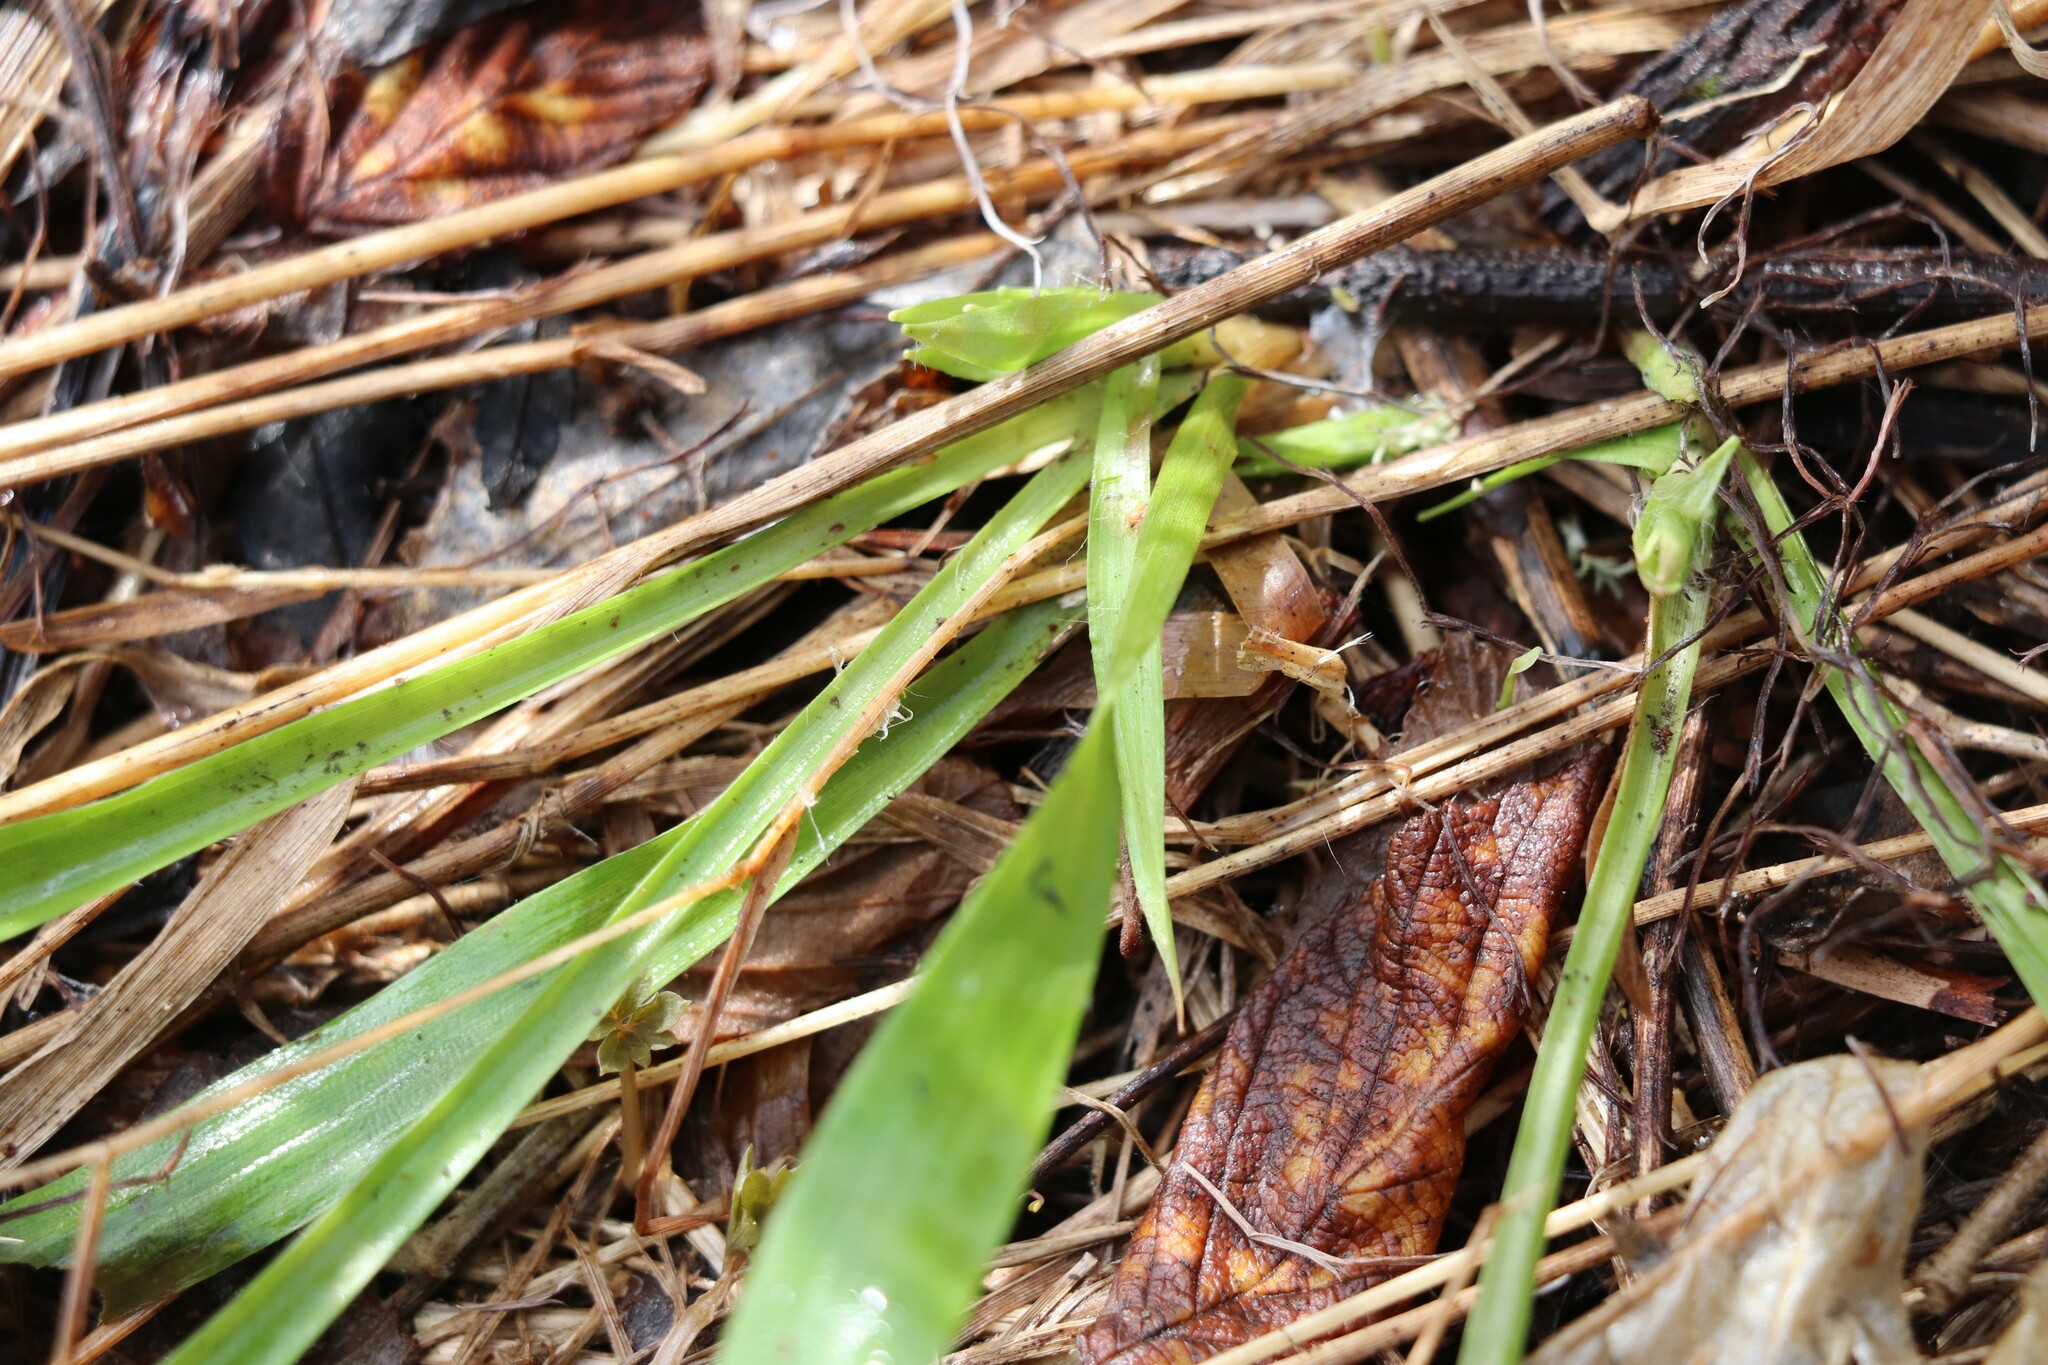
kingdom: Plantae
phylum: Tracheophyta
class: Liliopsida
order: Poales
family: Juncaceae
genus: Luzula
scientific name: Luzula pilosa
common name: Hairy wood-rush
